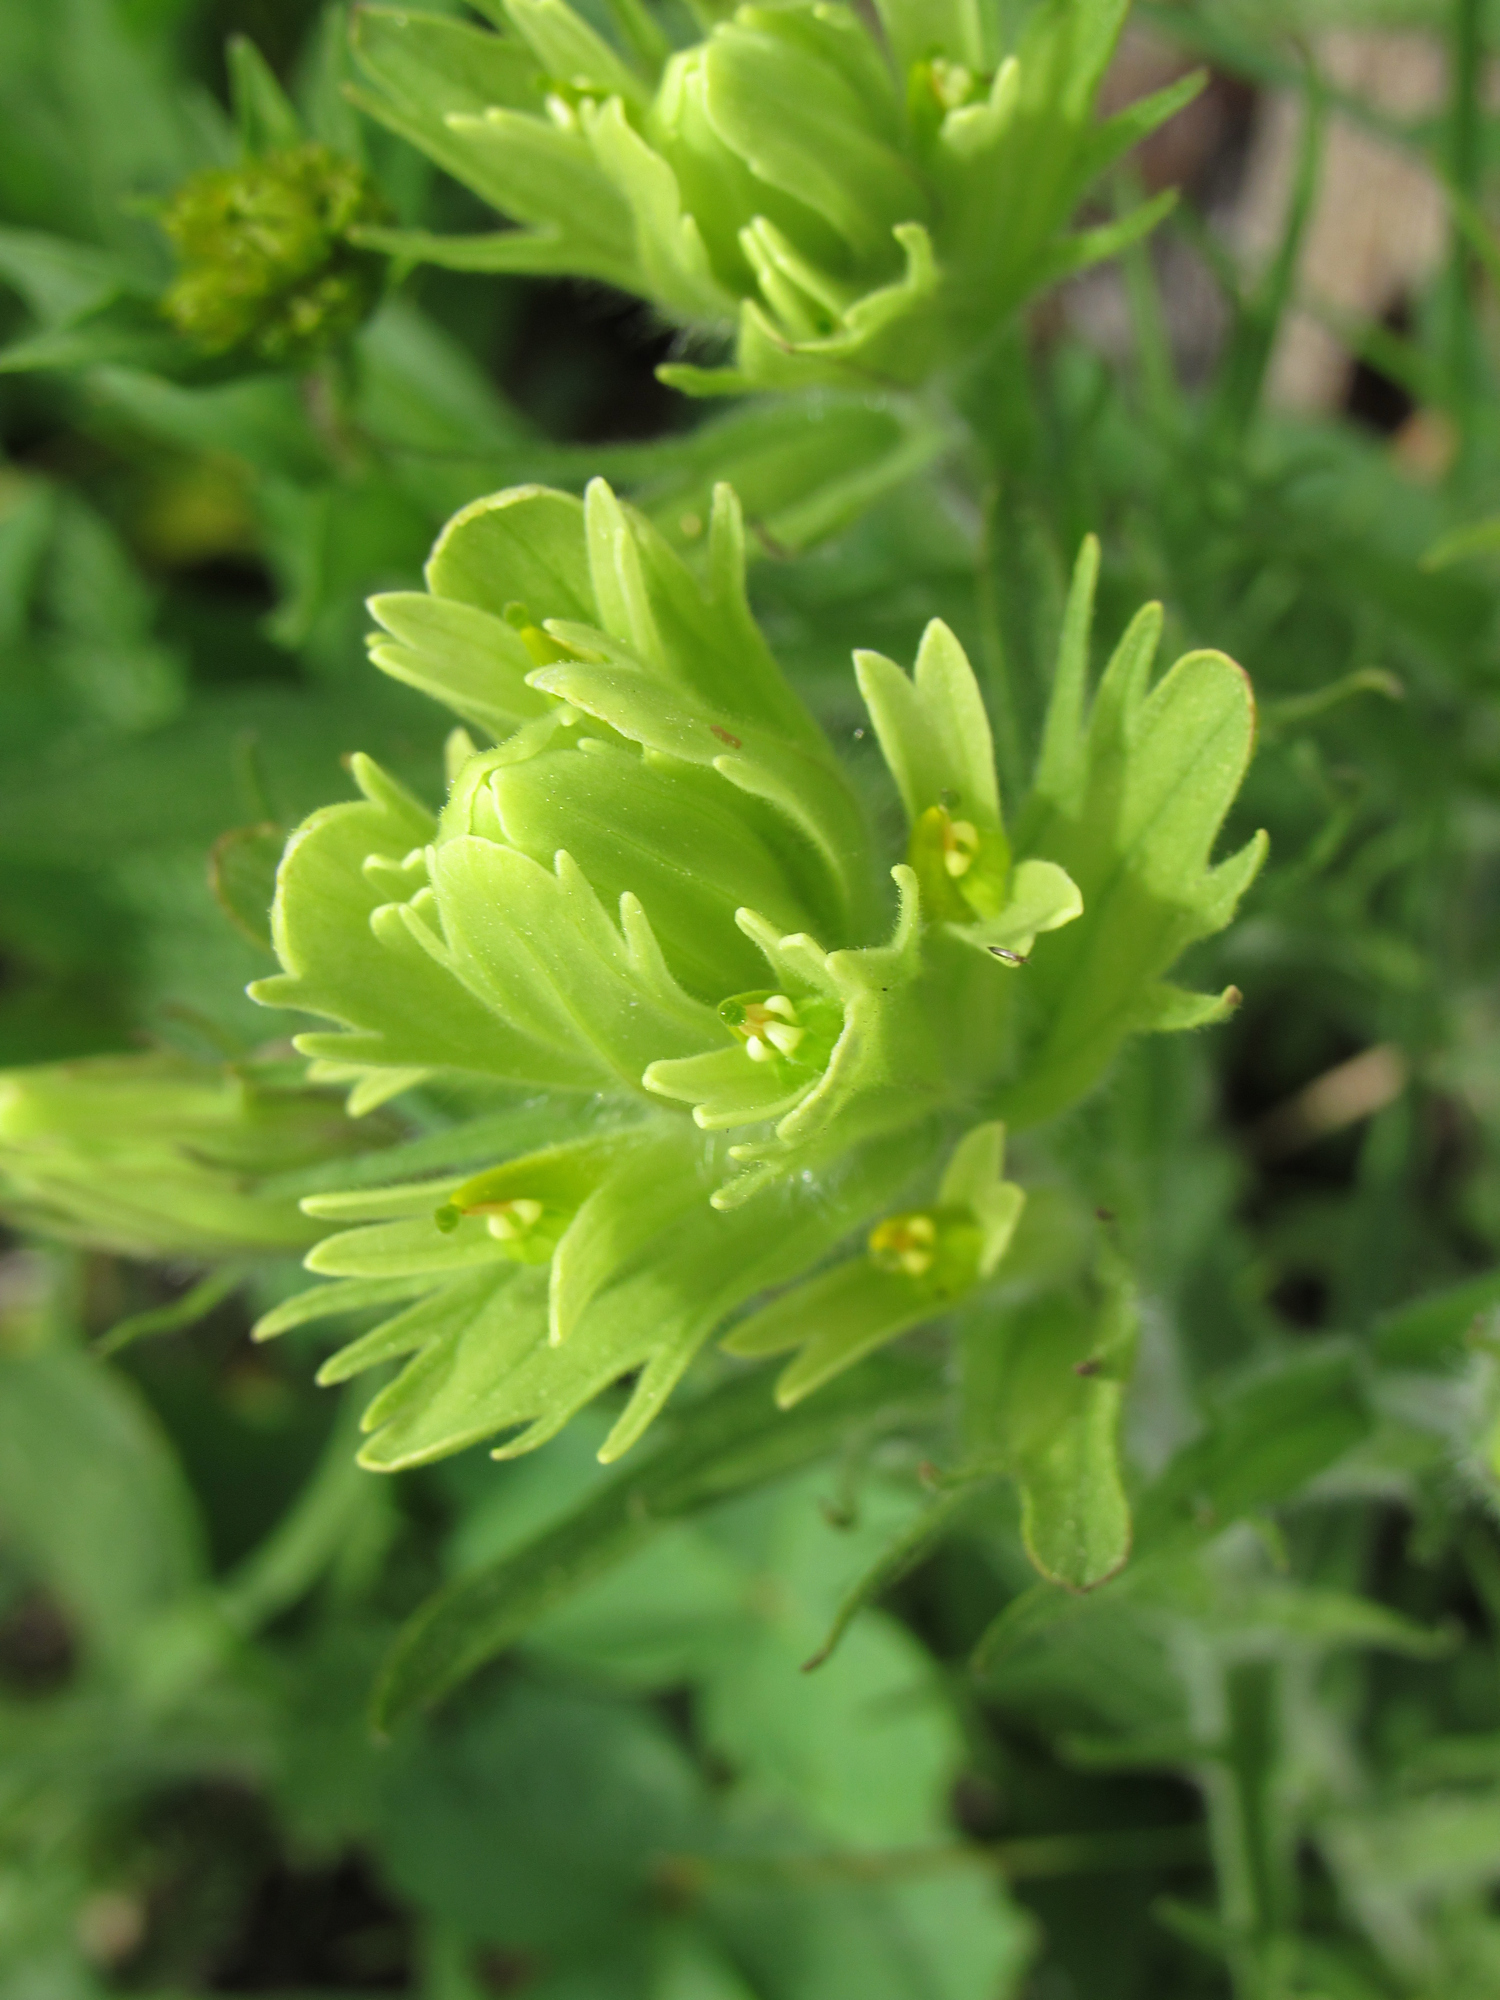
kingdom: Plantae
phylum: Tracheophyta
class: Magnoliopsida
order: Lamiales
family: Orobanchaceae
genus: Castilleja
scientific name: Castilleja cusickii
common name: Cusick's paintbrush
